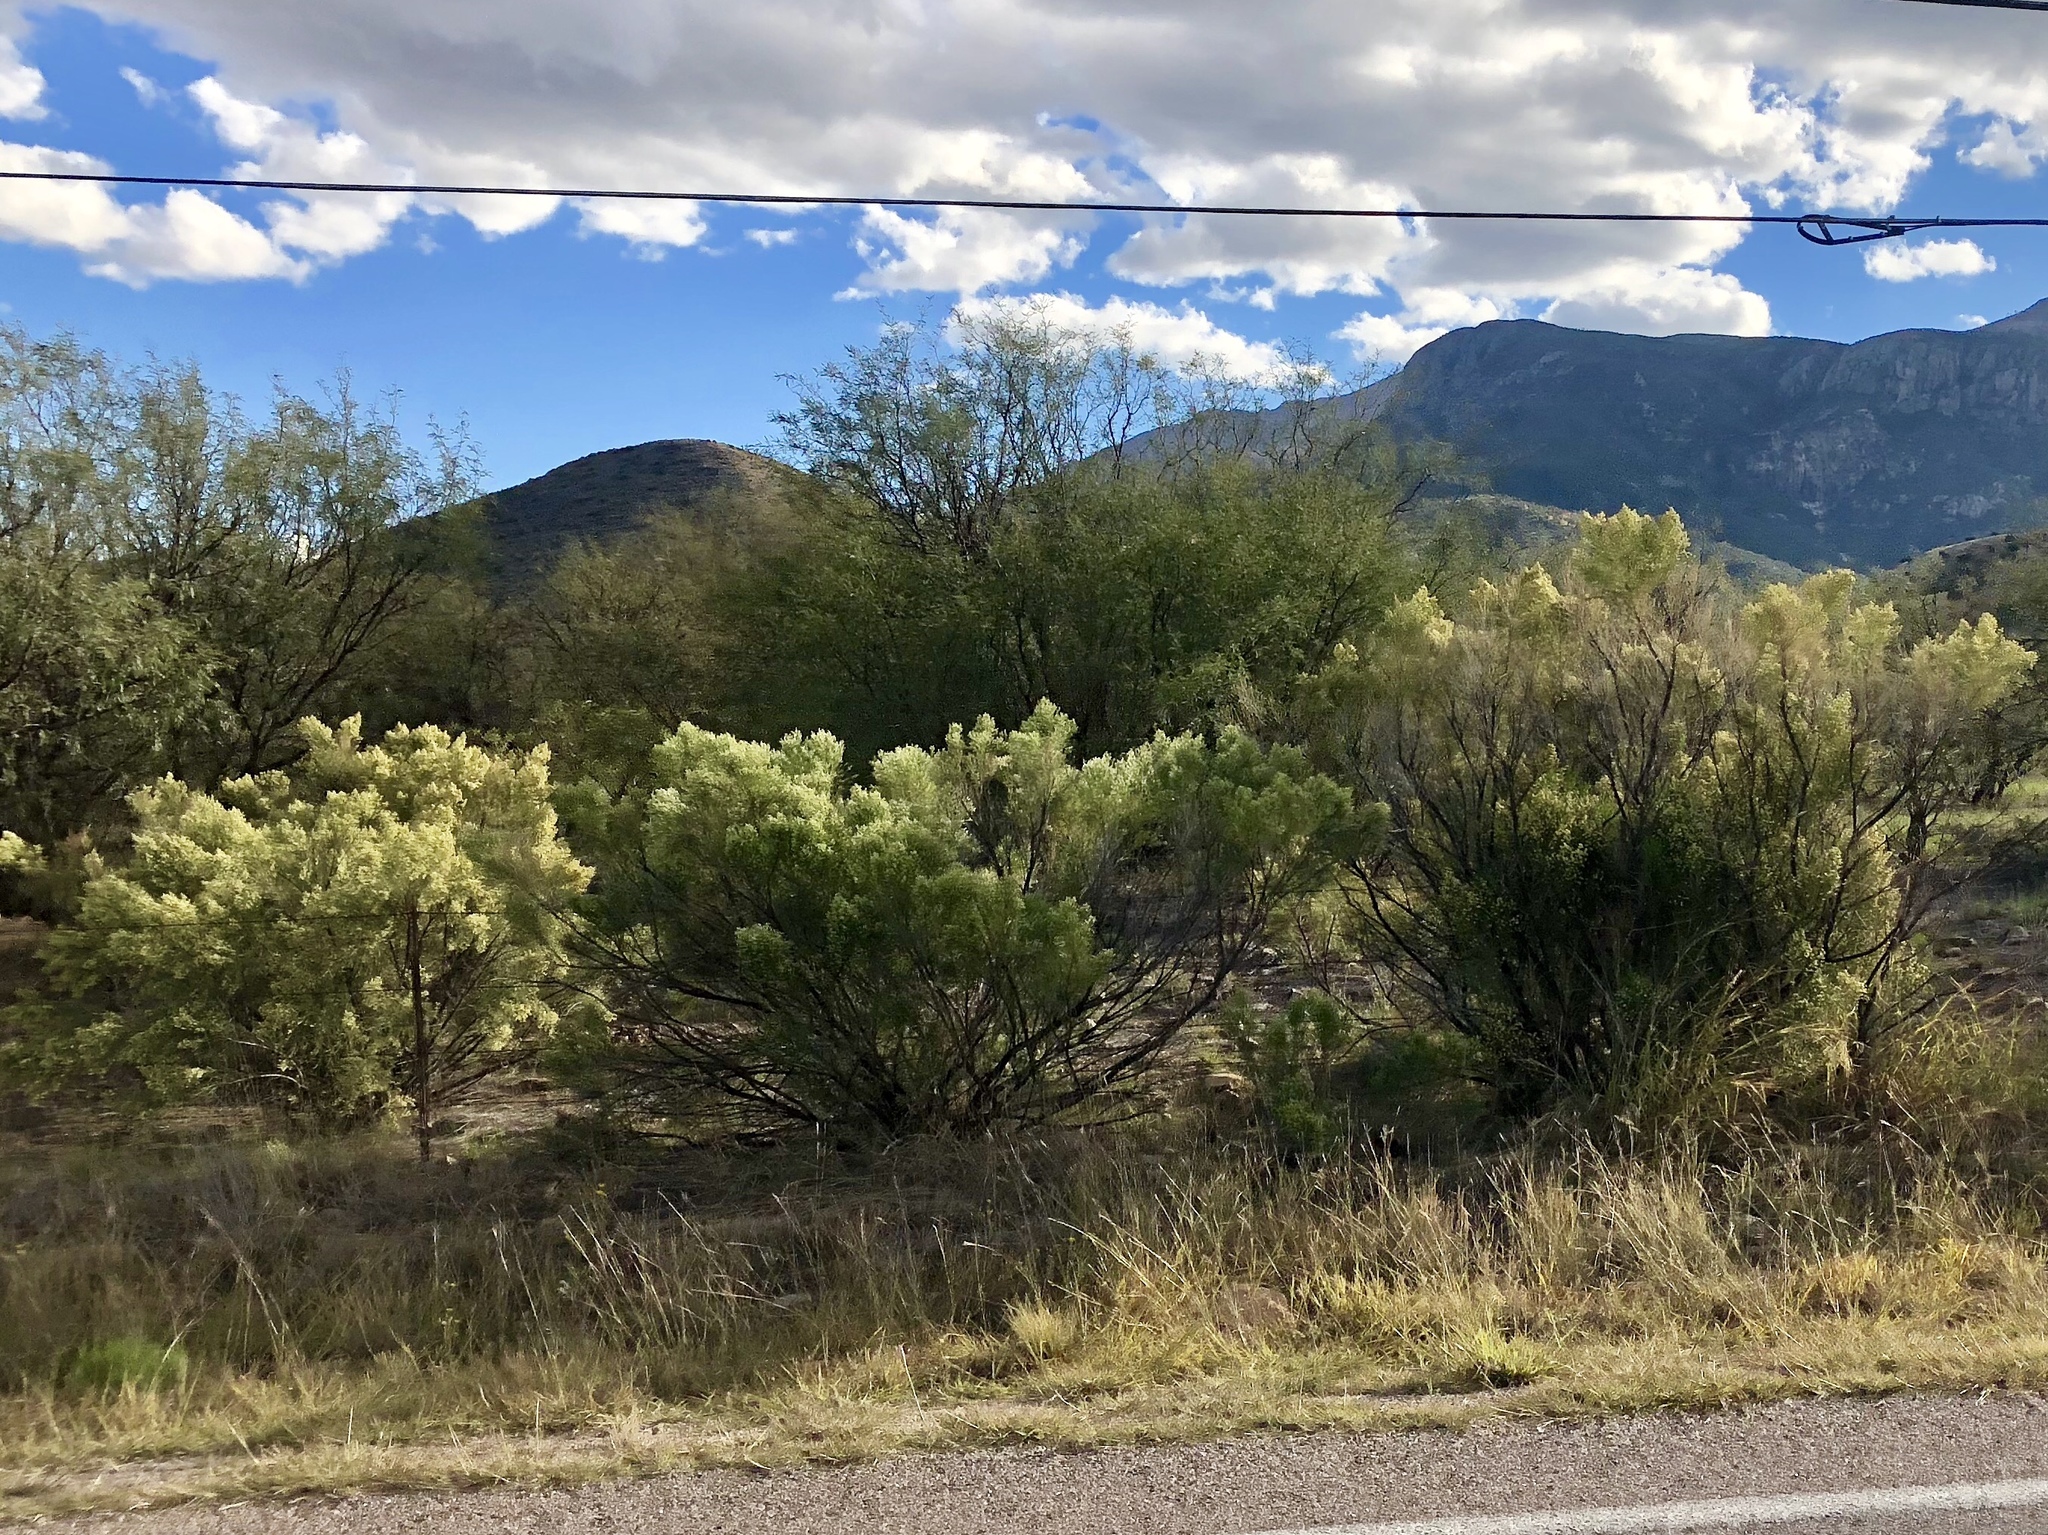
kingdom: Plantae
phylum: Tracheophyta
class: Magnoliopsida
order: Asterales
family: Asteraceae
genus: Baccharis
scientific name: Baccharis sarothroides
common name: Desert-broom
